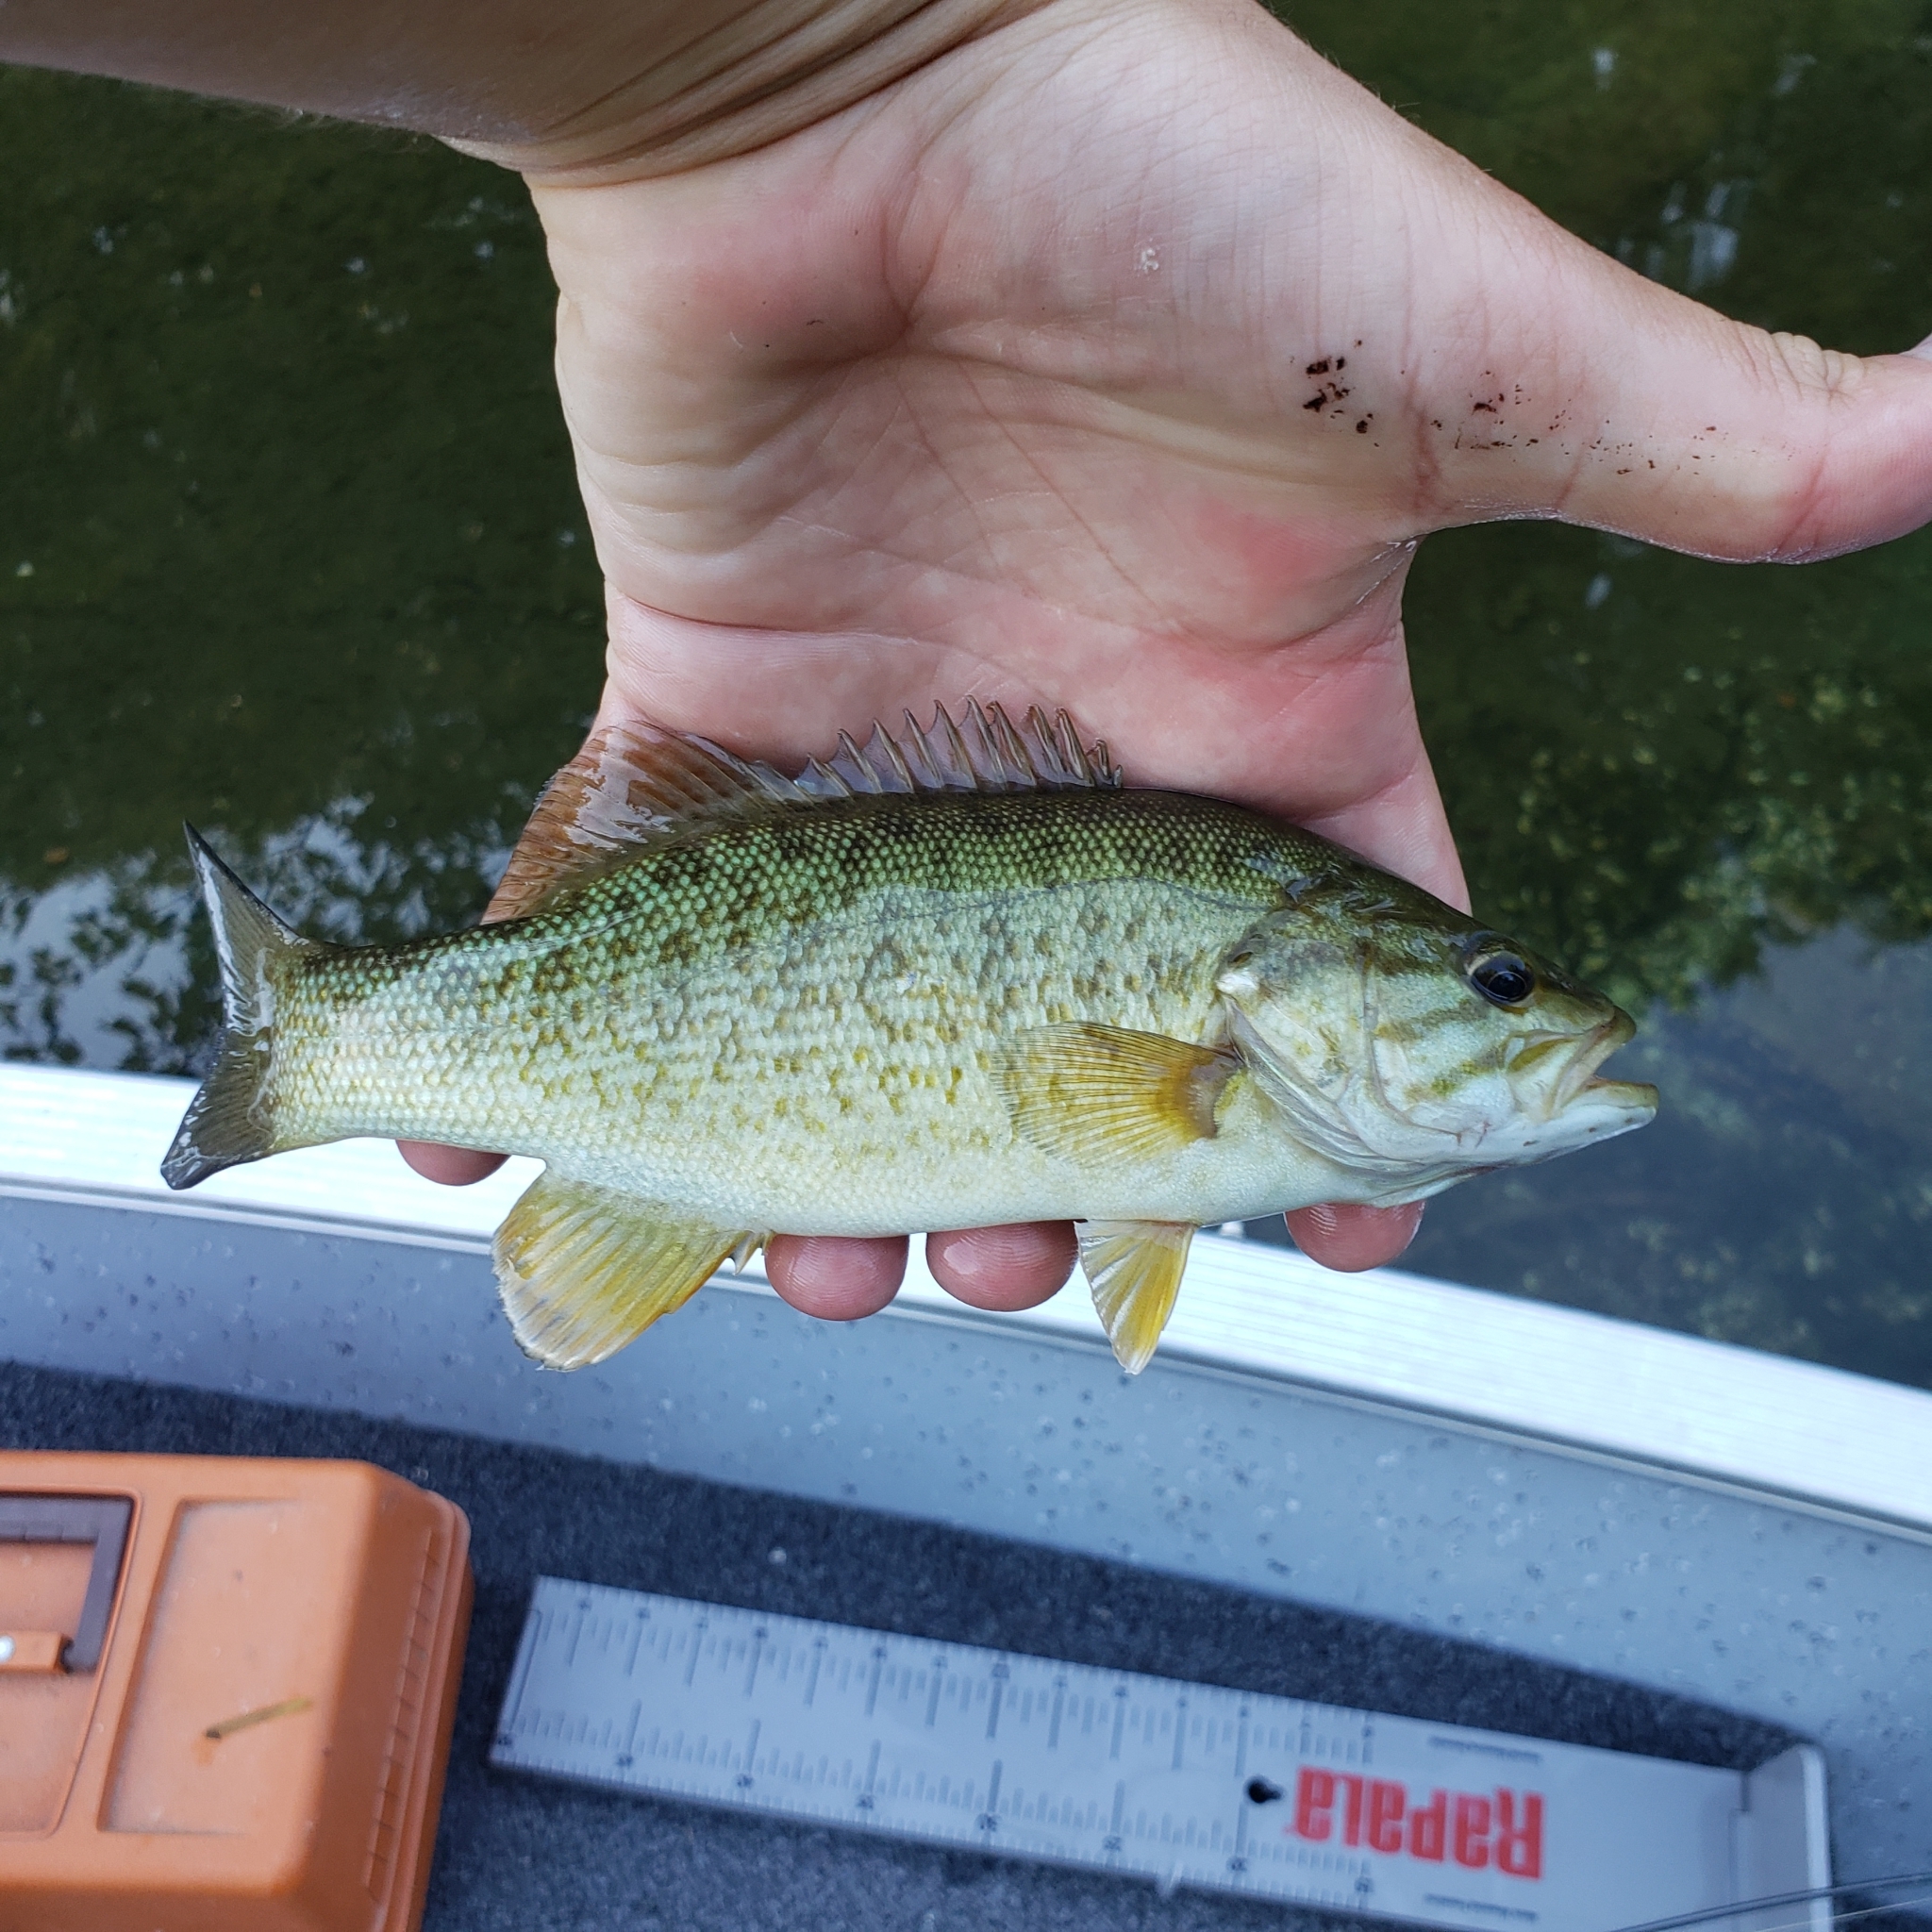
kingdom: Animalia
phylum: Chordata
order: Perciformes
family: Centrarchidae
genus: Micropterus
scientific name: Micropterus dolomieu
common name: Smallmouth bass
